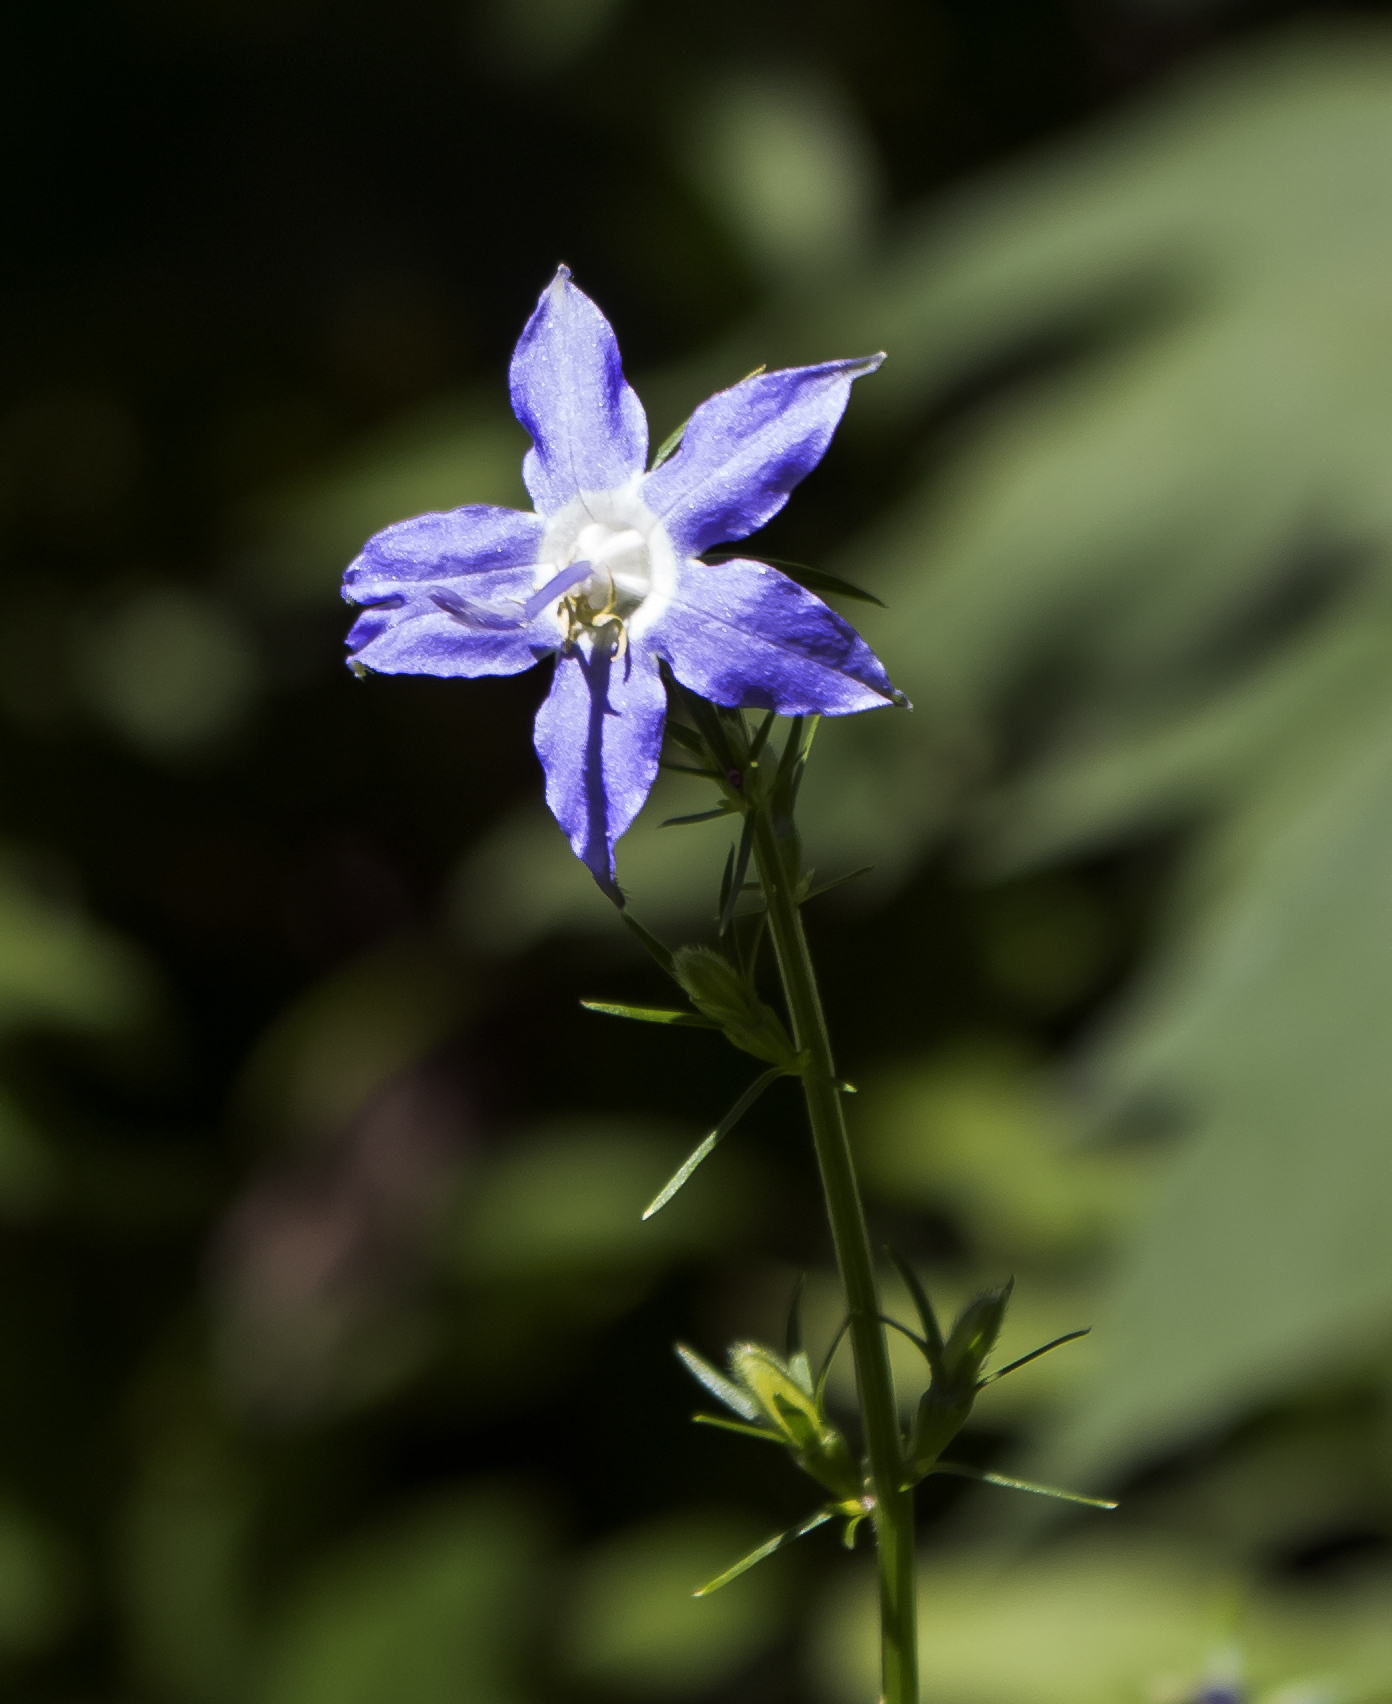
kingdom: Plantae
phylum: Tracheophyta
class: Magnoliopsida
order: Asterales
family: Campanulaceae
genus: Campanulastrum
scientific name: Campanulastrum americanum
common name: American bellflower
